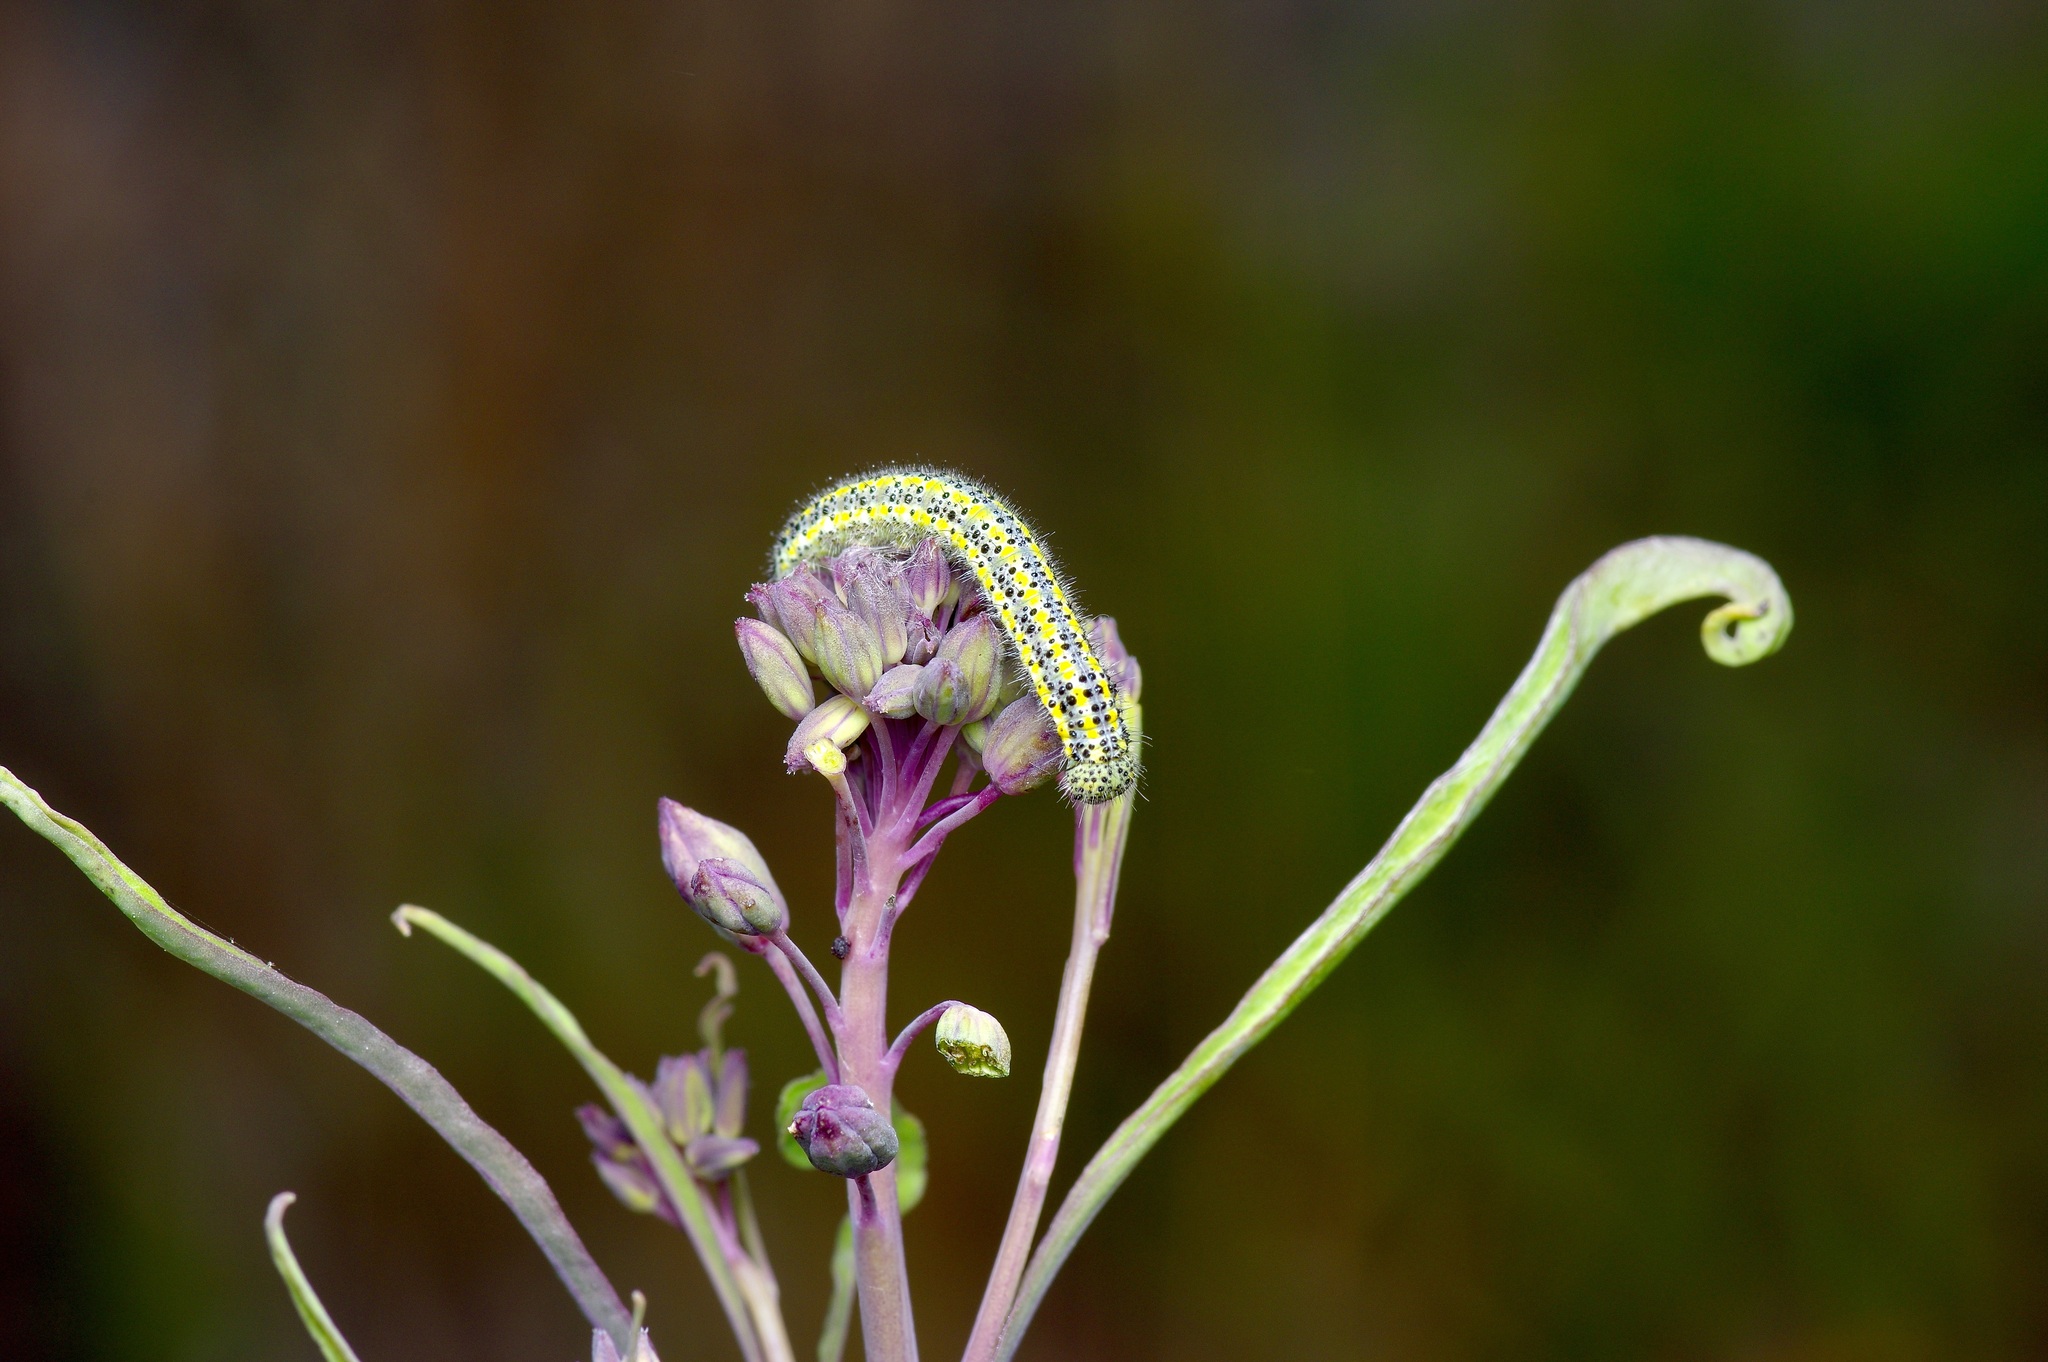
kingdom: Animalia
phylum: Arthropoda
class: Insecta
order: Lepidoptera
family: Pieridae
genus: Pontia
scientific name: Pontia protodice
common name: Checkered white
